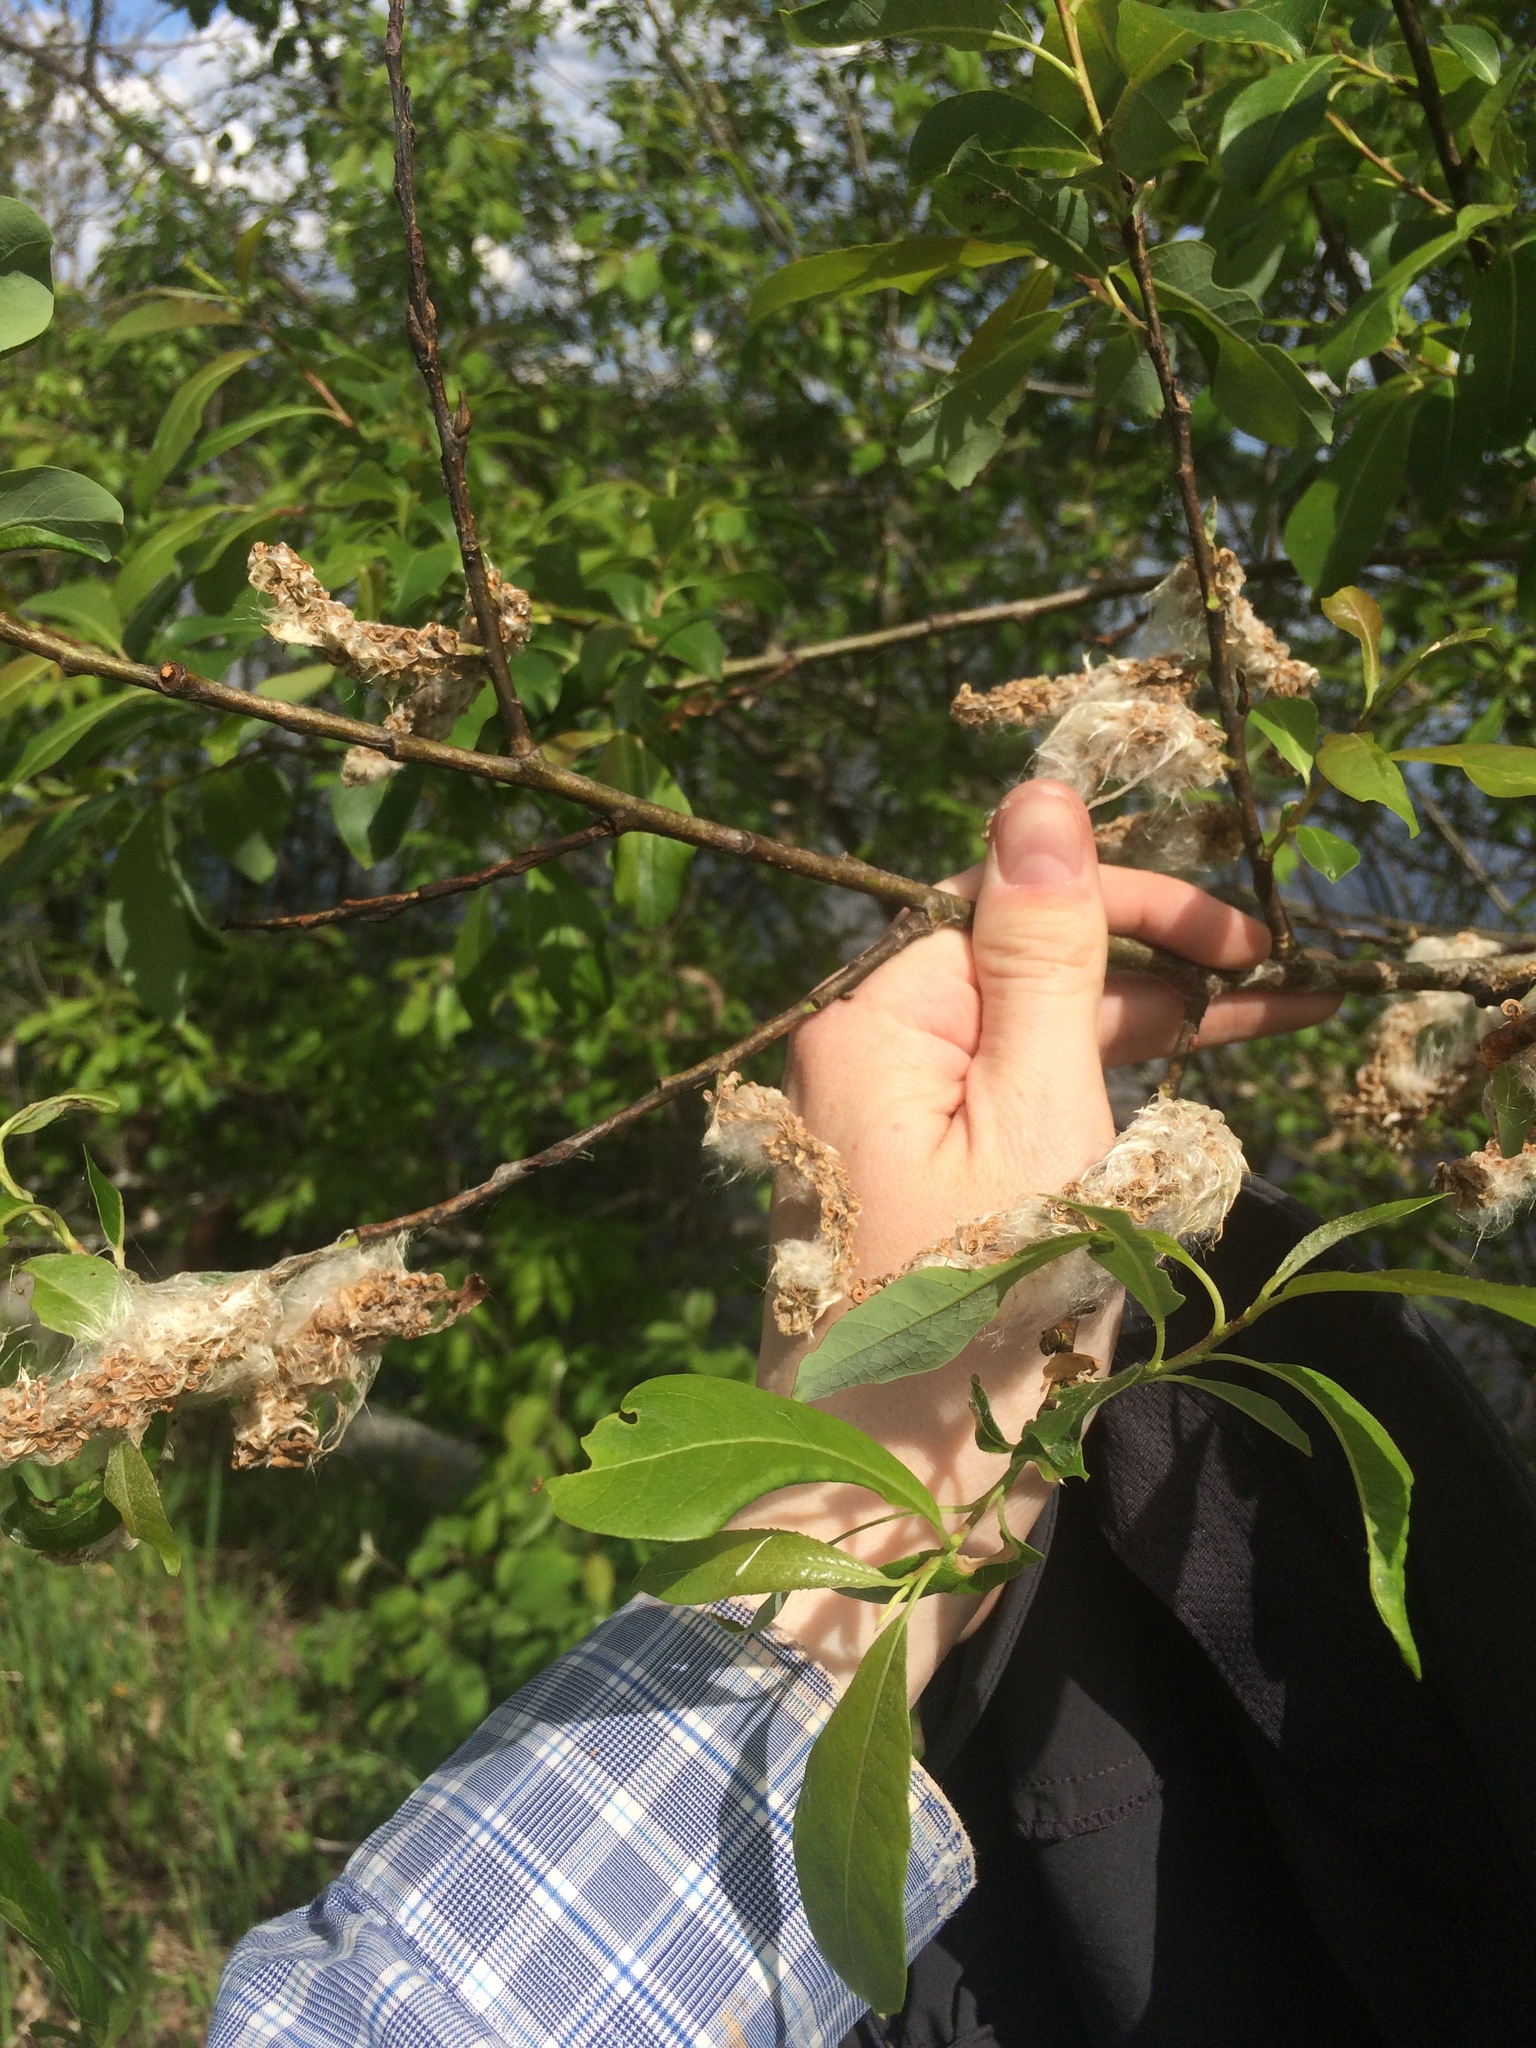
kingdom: Plantae
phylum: Tracheophyta
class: Magnoliopsida
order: Malpighiales
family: Salicaceae
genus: Salix
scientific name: Salix discolor
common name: Glaucous willow
